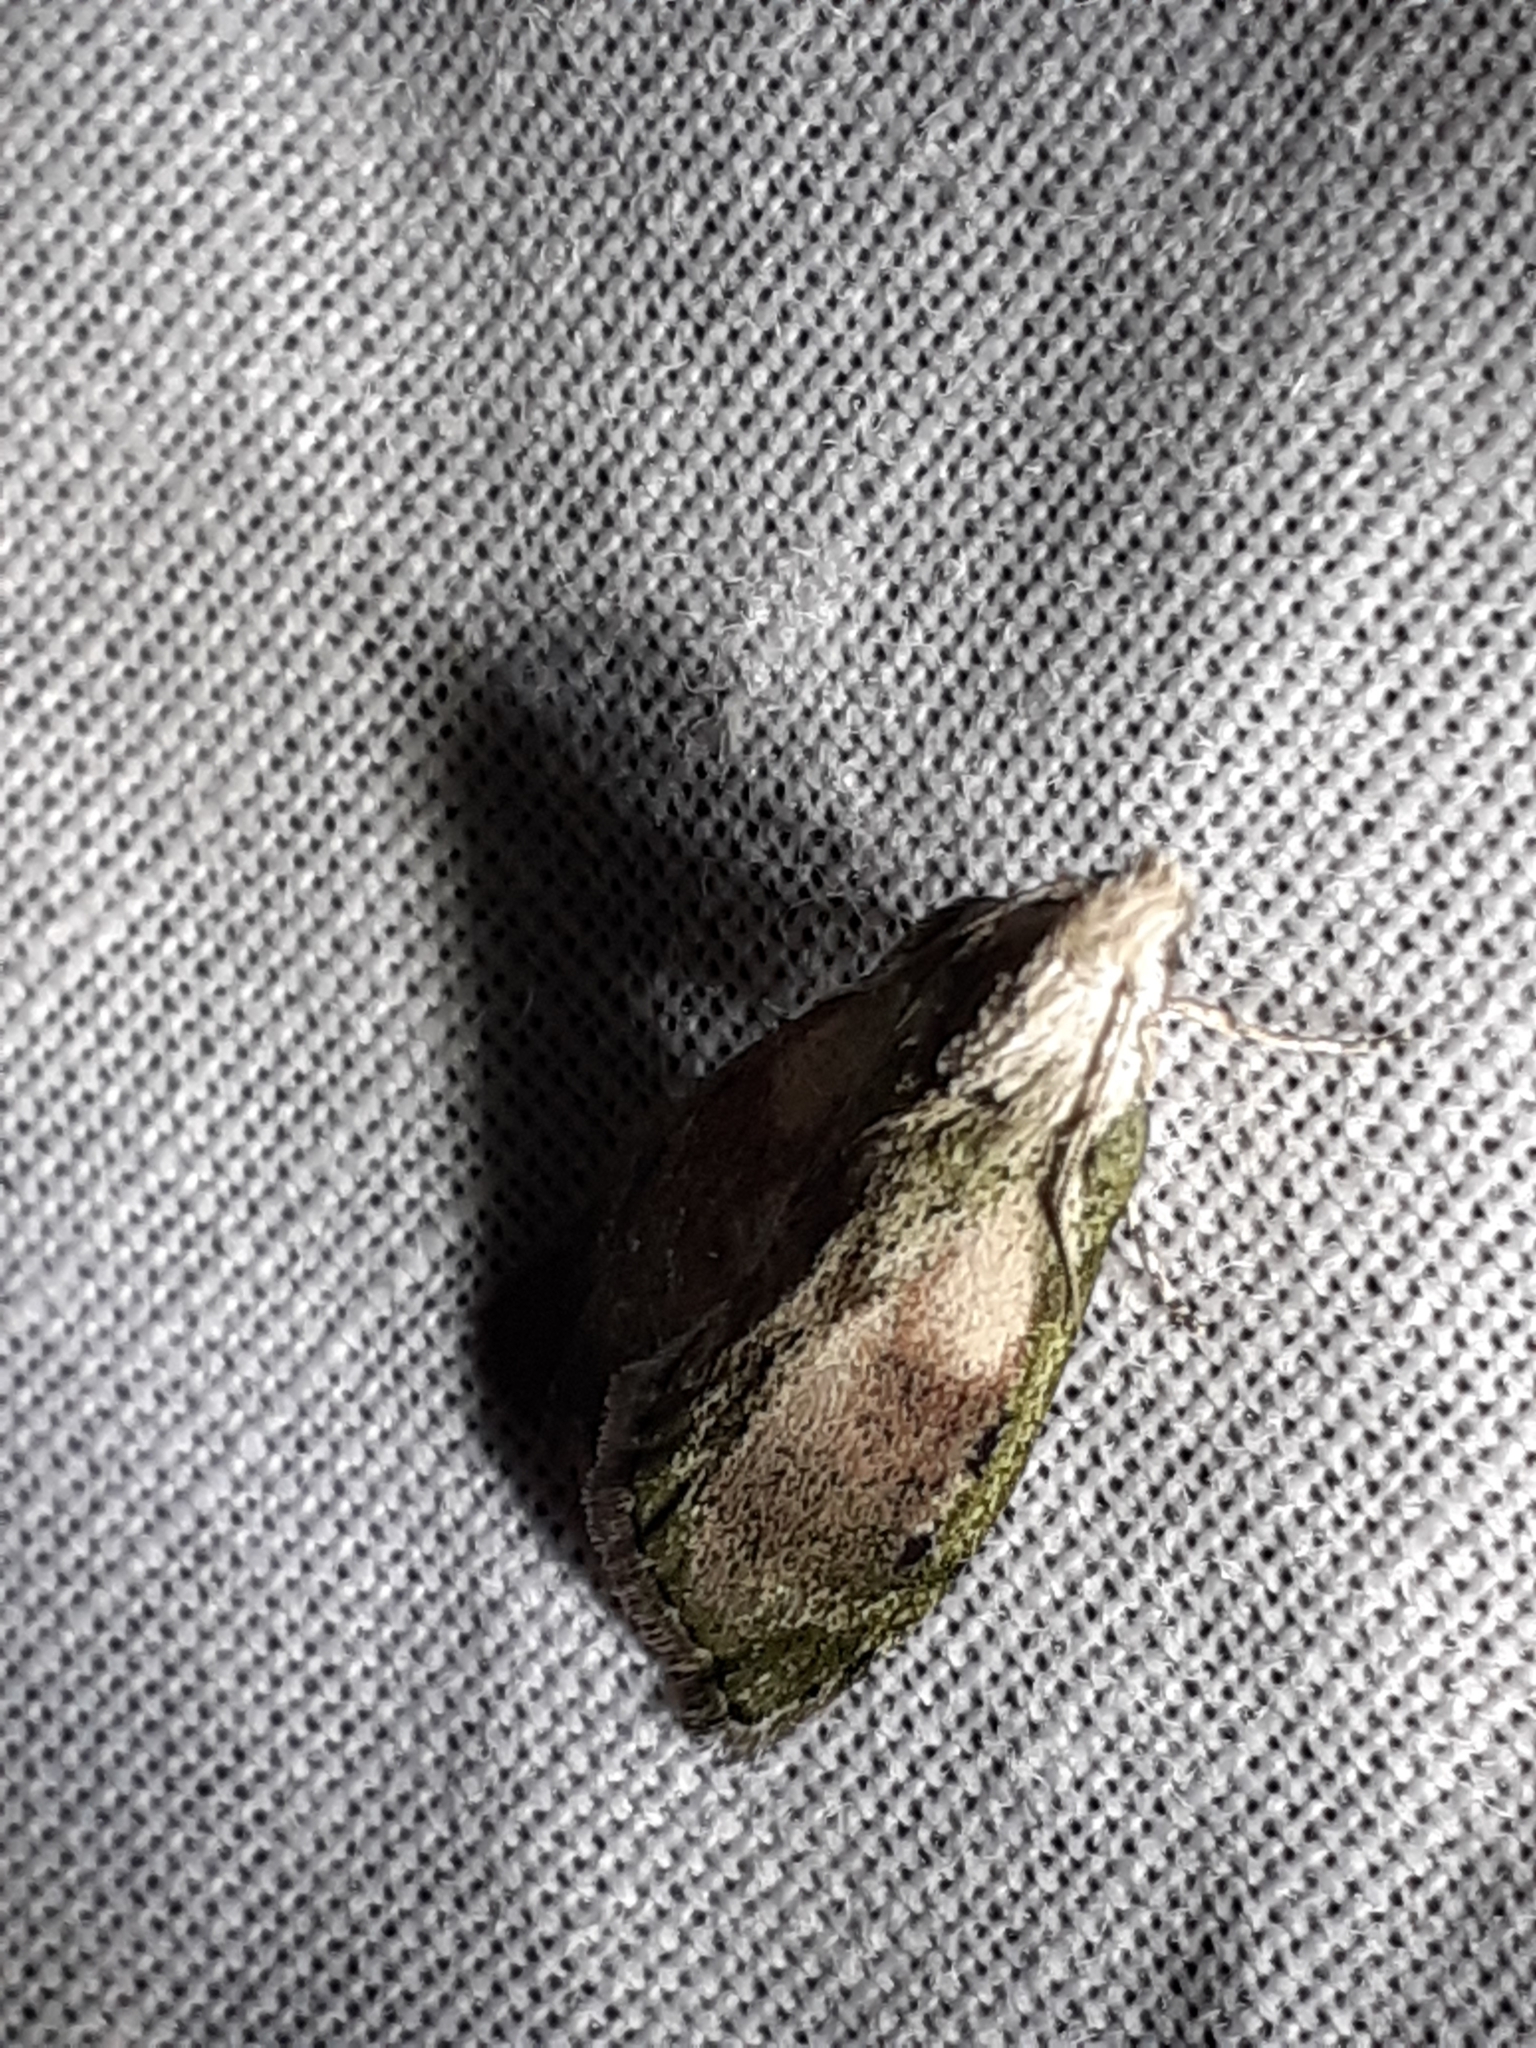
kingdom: Animalia
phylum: Arthropoda
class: Insecta
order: Lepidoptera
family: Pyralidae
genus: Aphomia
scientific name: Aphomia sociella
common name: Bee moth
